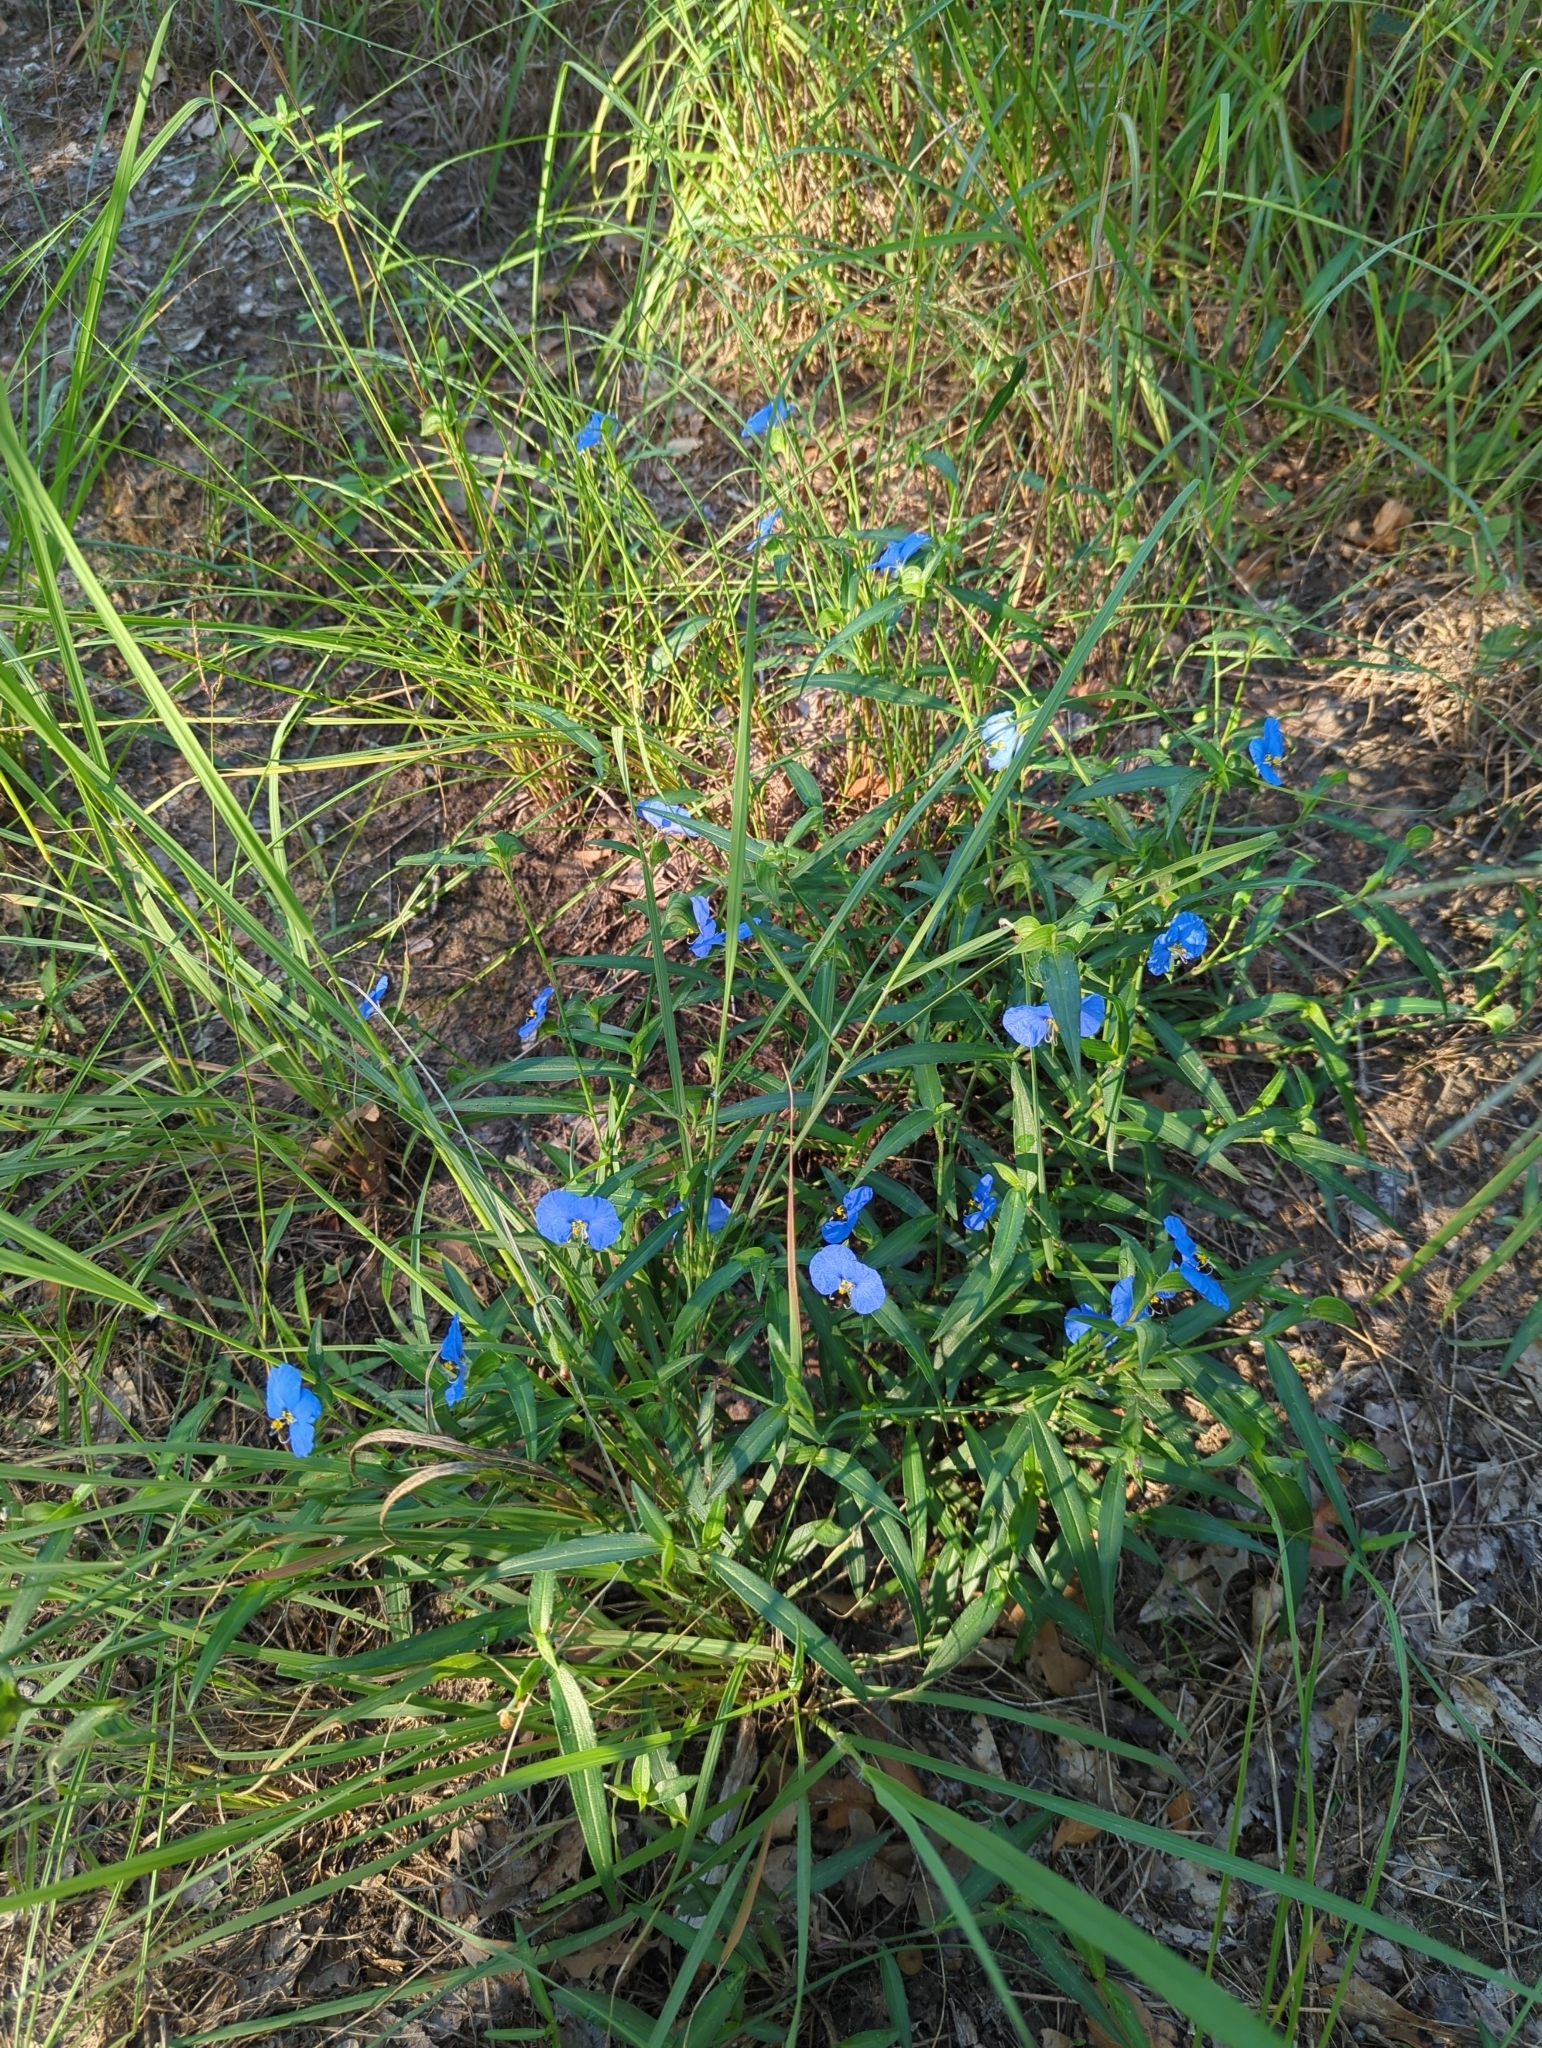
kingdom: Plantae
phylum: Tracheophyta
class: Liliopsida
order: Commelinales
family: Commelinaceae
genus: Commelina
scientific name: Commelina erecta
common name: Blousel blommetjie
